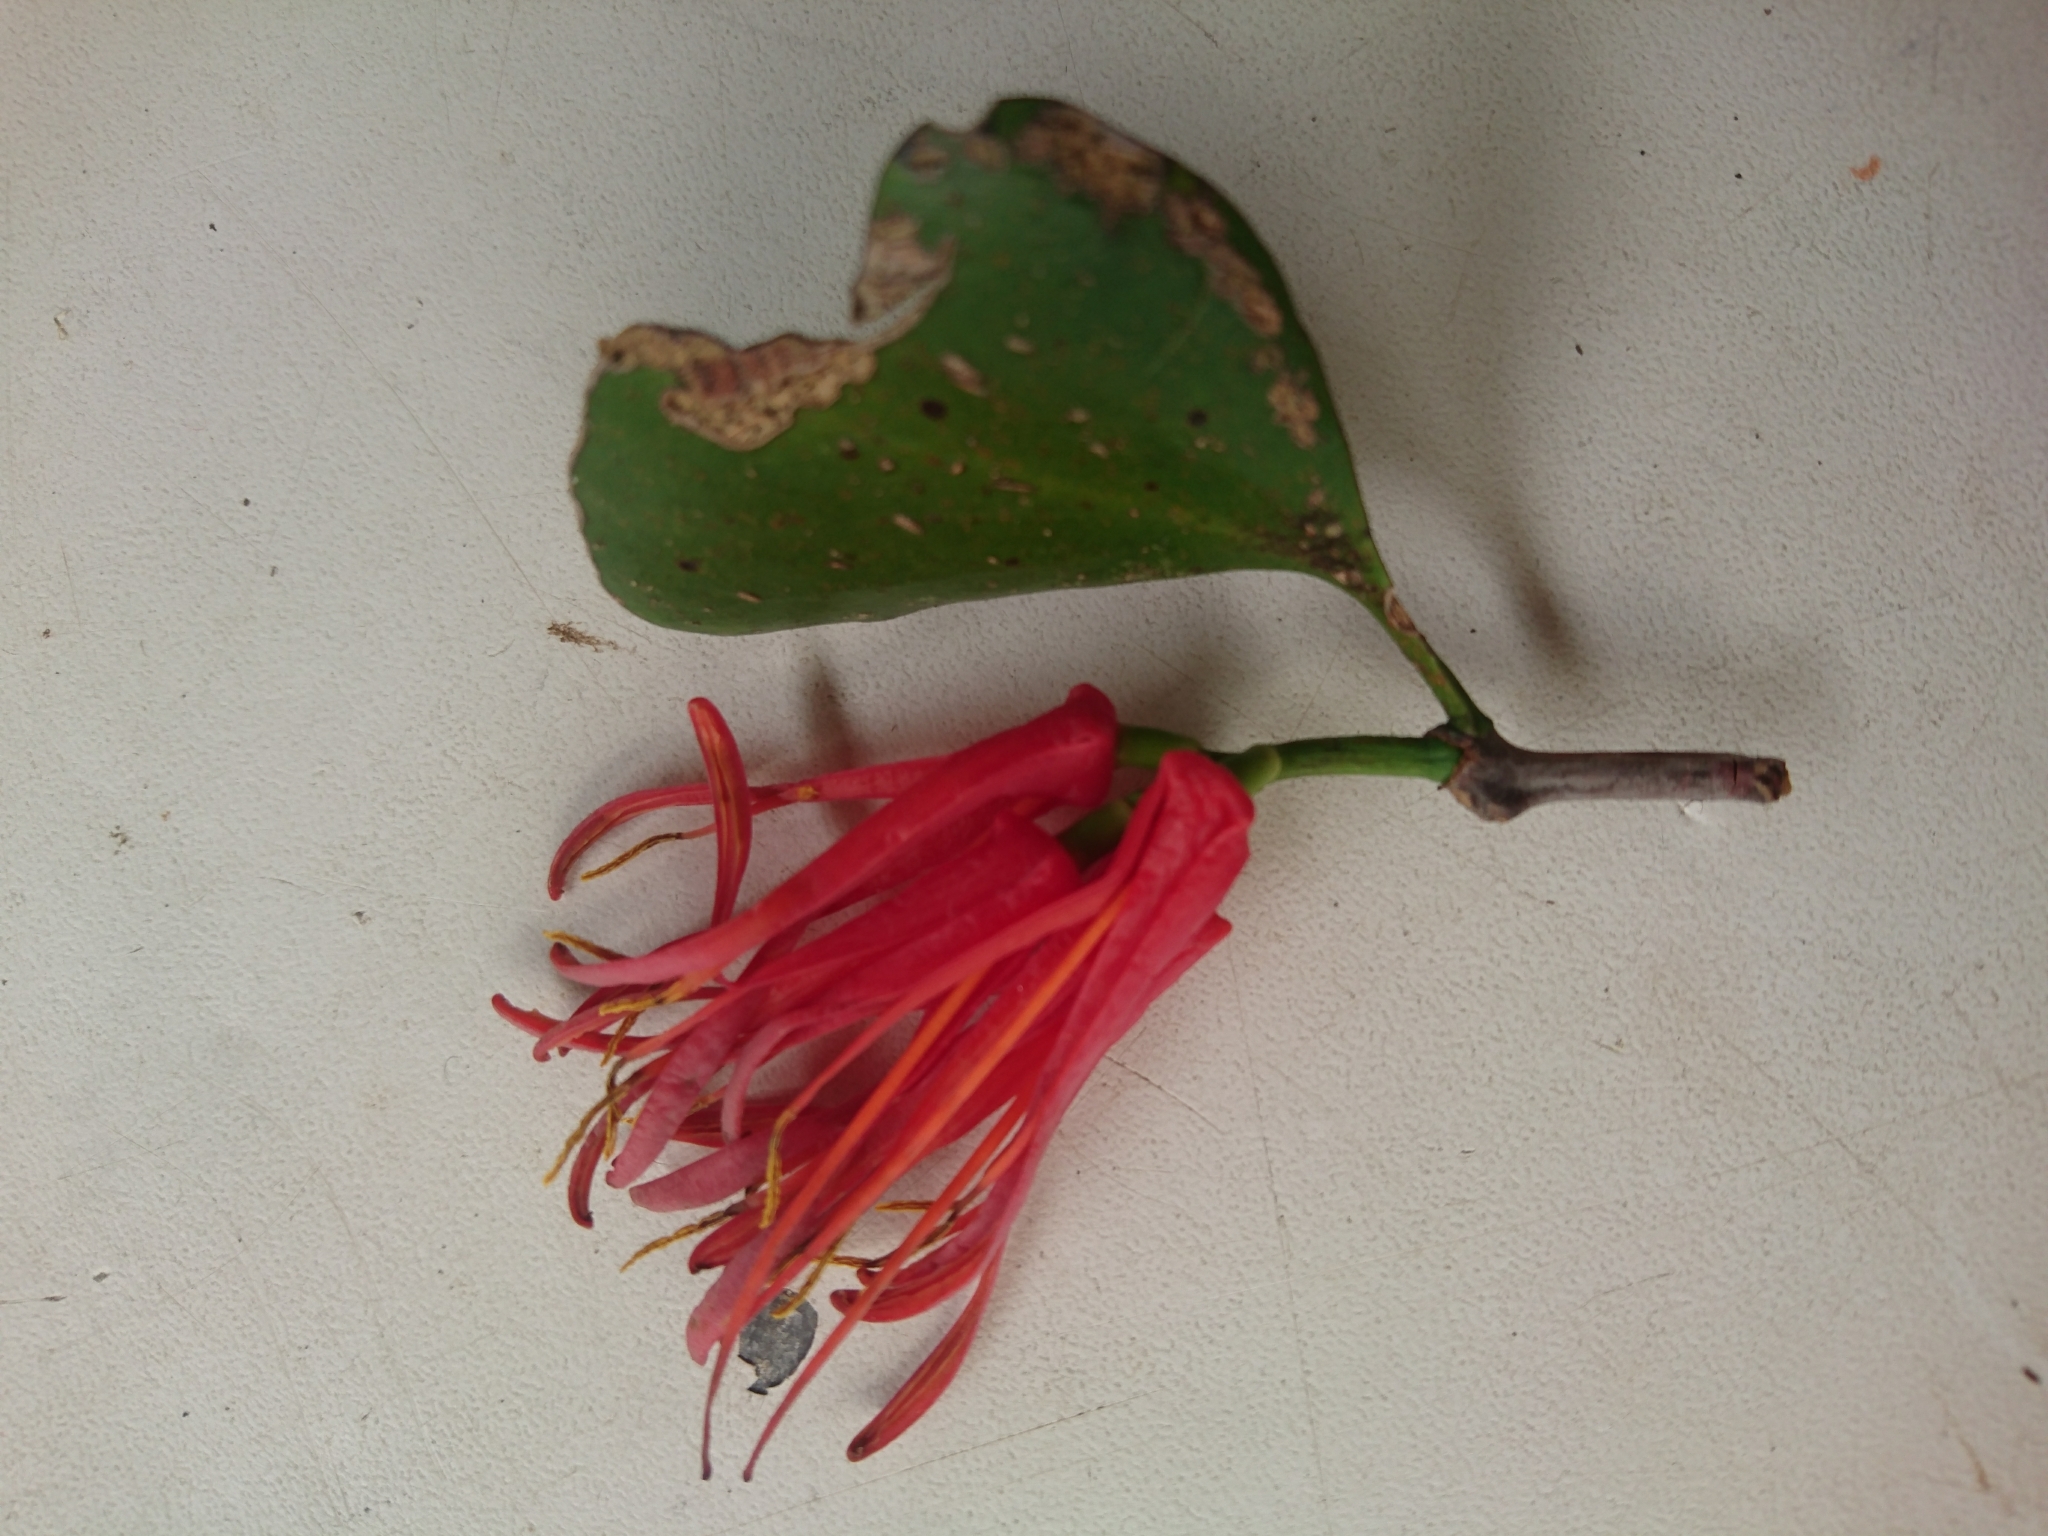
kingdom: Plantae
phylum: Tracheophyta
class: Magnoliopsida
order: Santalales
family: Loranthaceae
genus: Peraxilla
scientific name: Peraxilla colensoi
